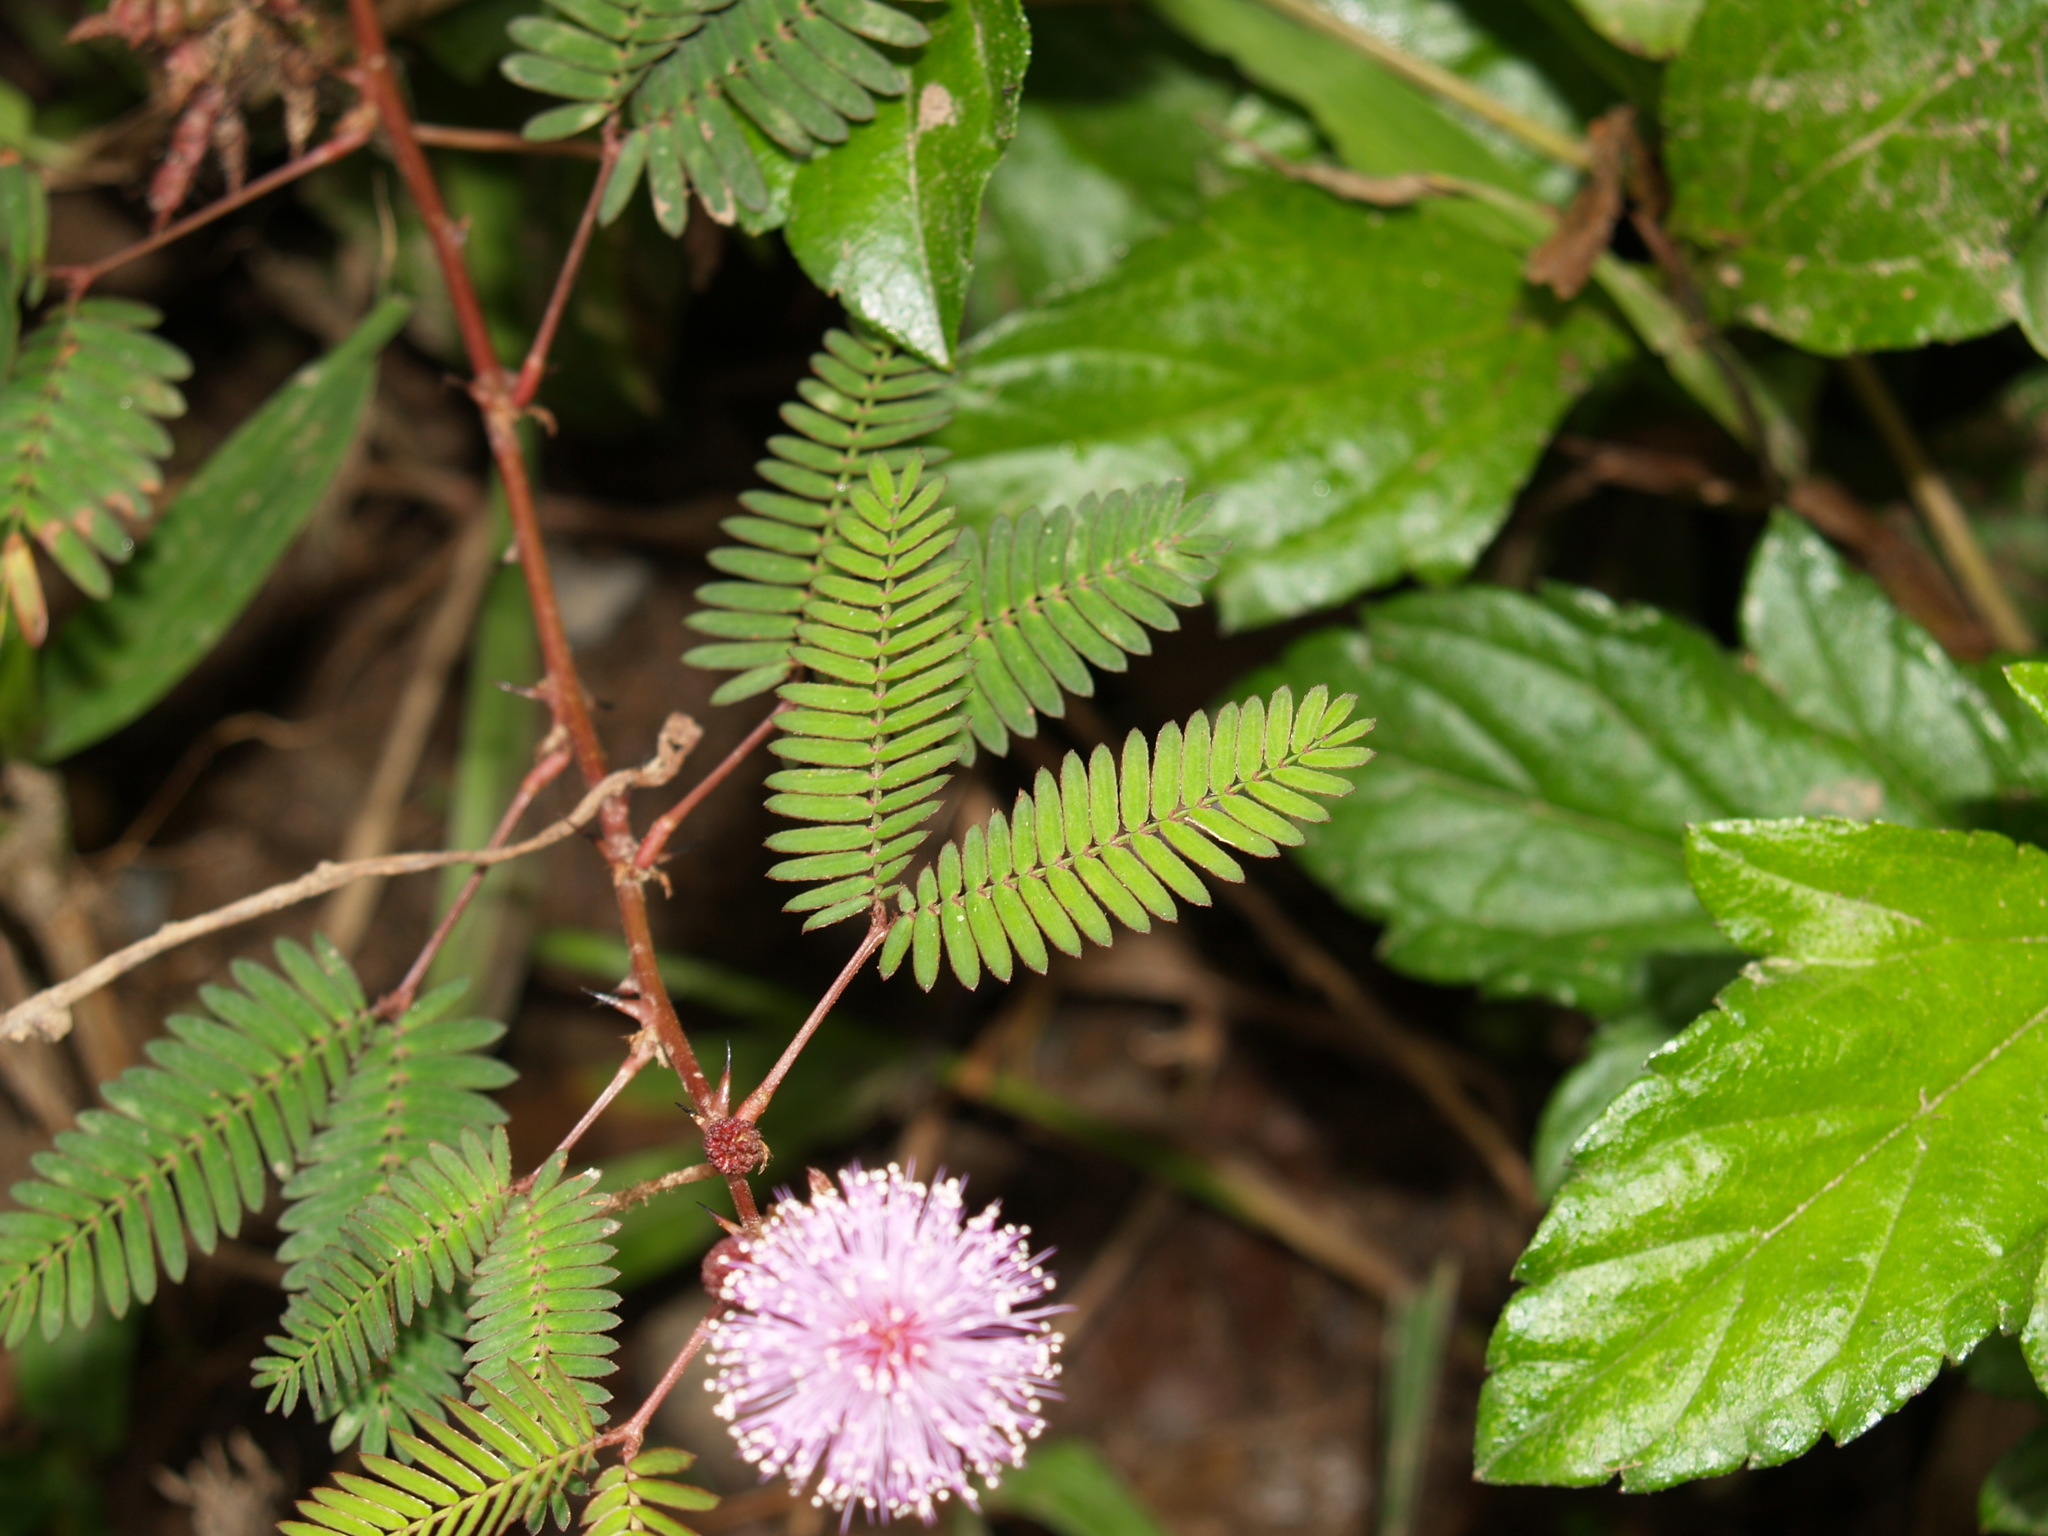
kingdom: Plantae
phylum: Tracheophyta
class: Magnoliopsida
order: Fabales
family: Fabaceae
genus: Mimosa
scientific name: Mimosa pudica
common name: Sensitive plant
